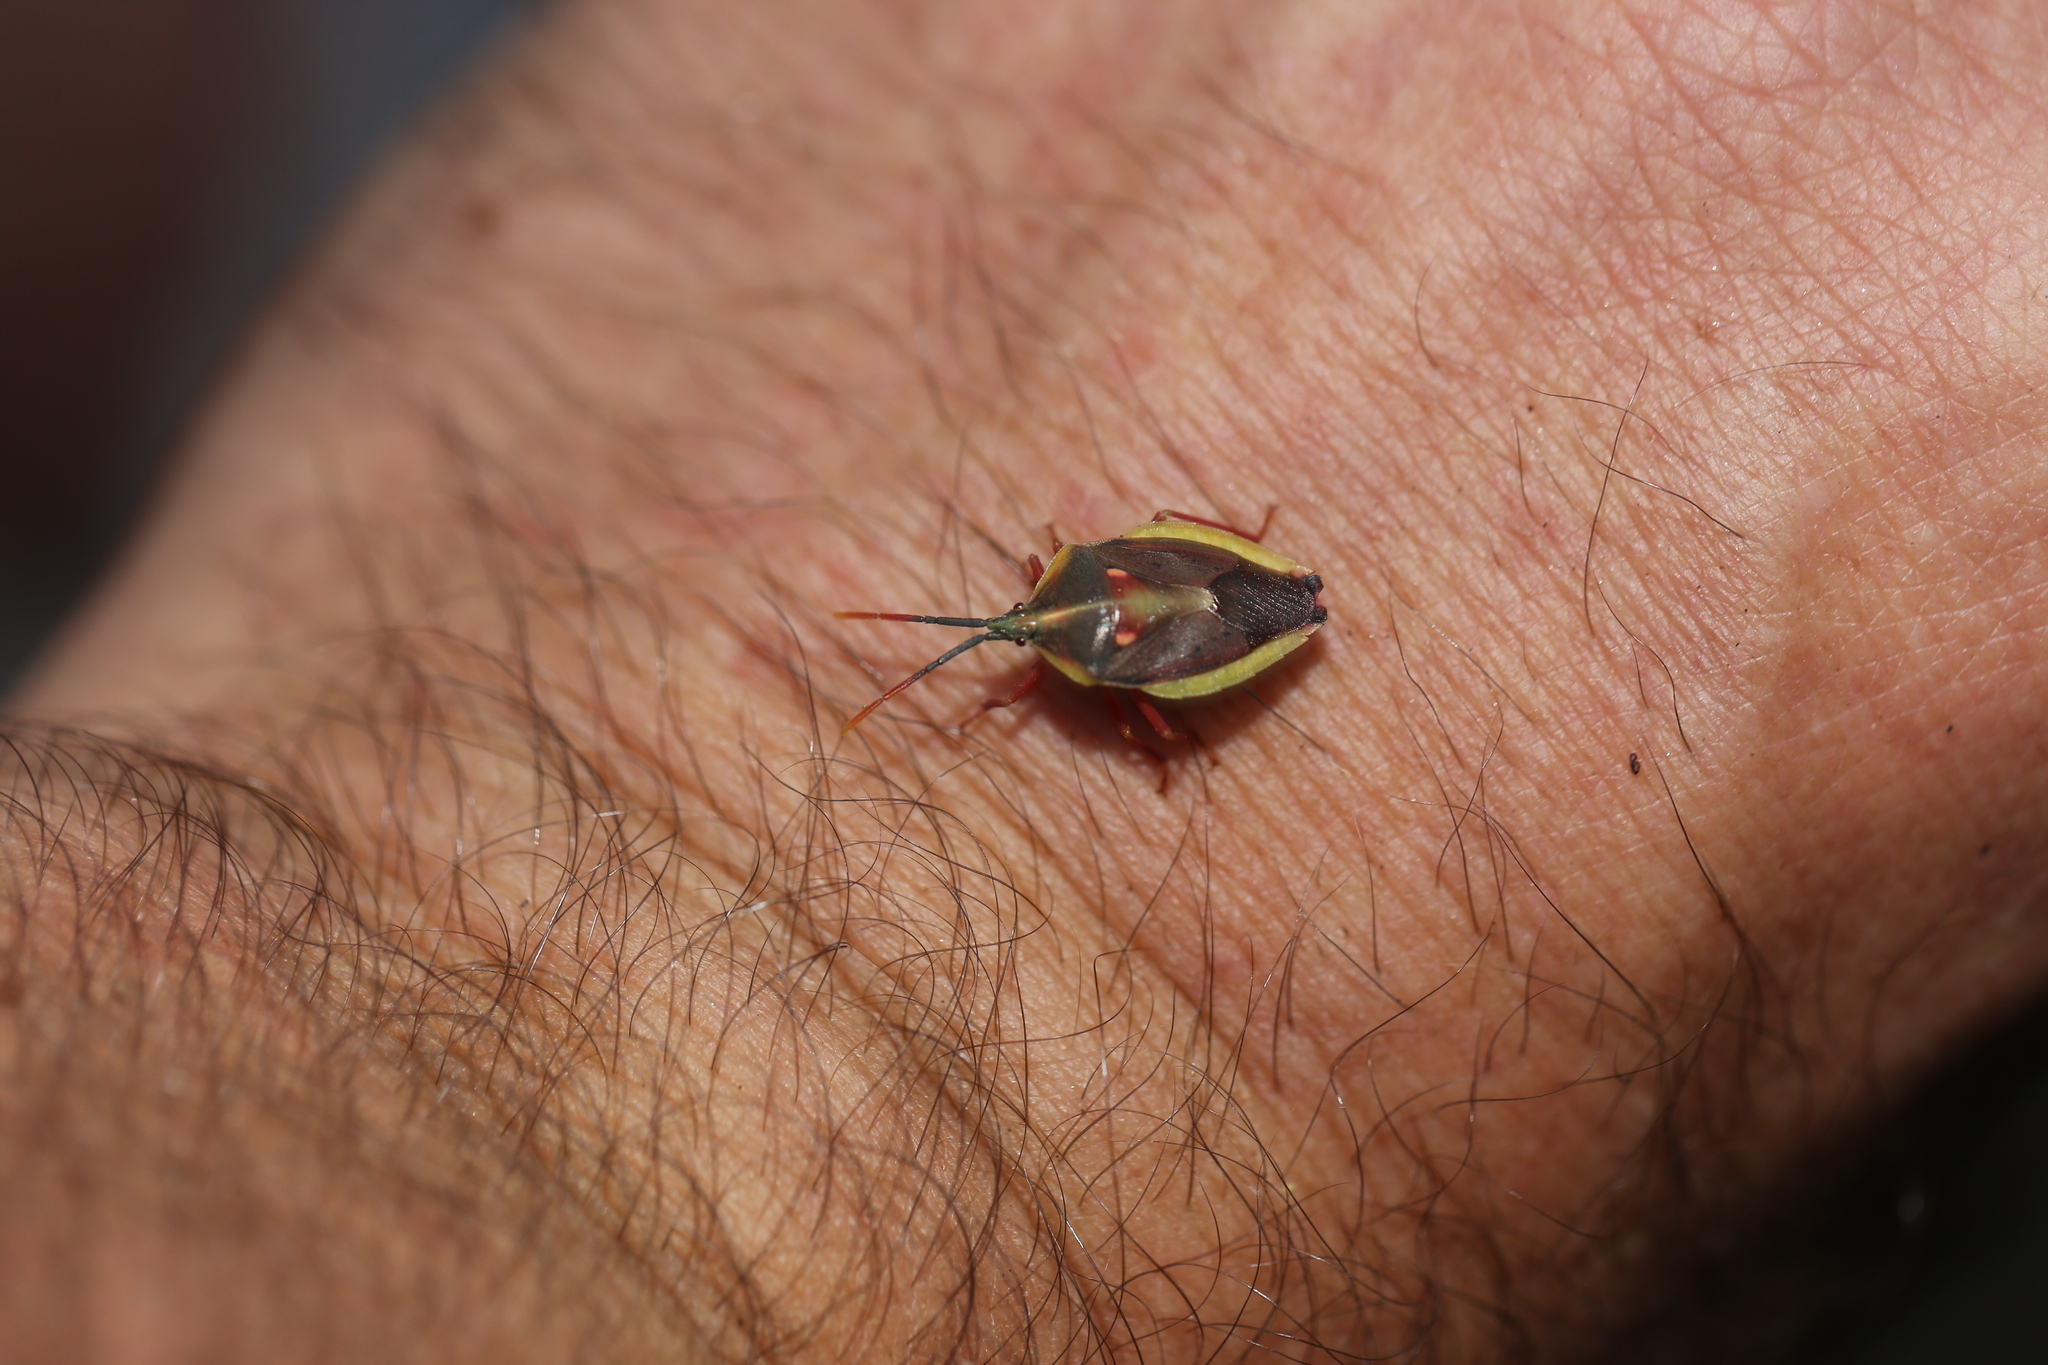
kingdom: Animalia
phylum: Arthropoda
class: Insecta
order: Hemiptera
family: Tessaratomidae
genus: Erga
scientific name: Erga longitudinalis
